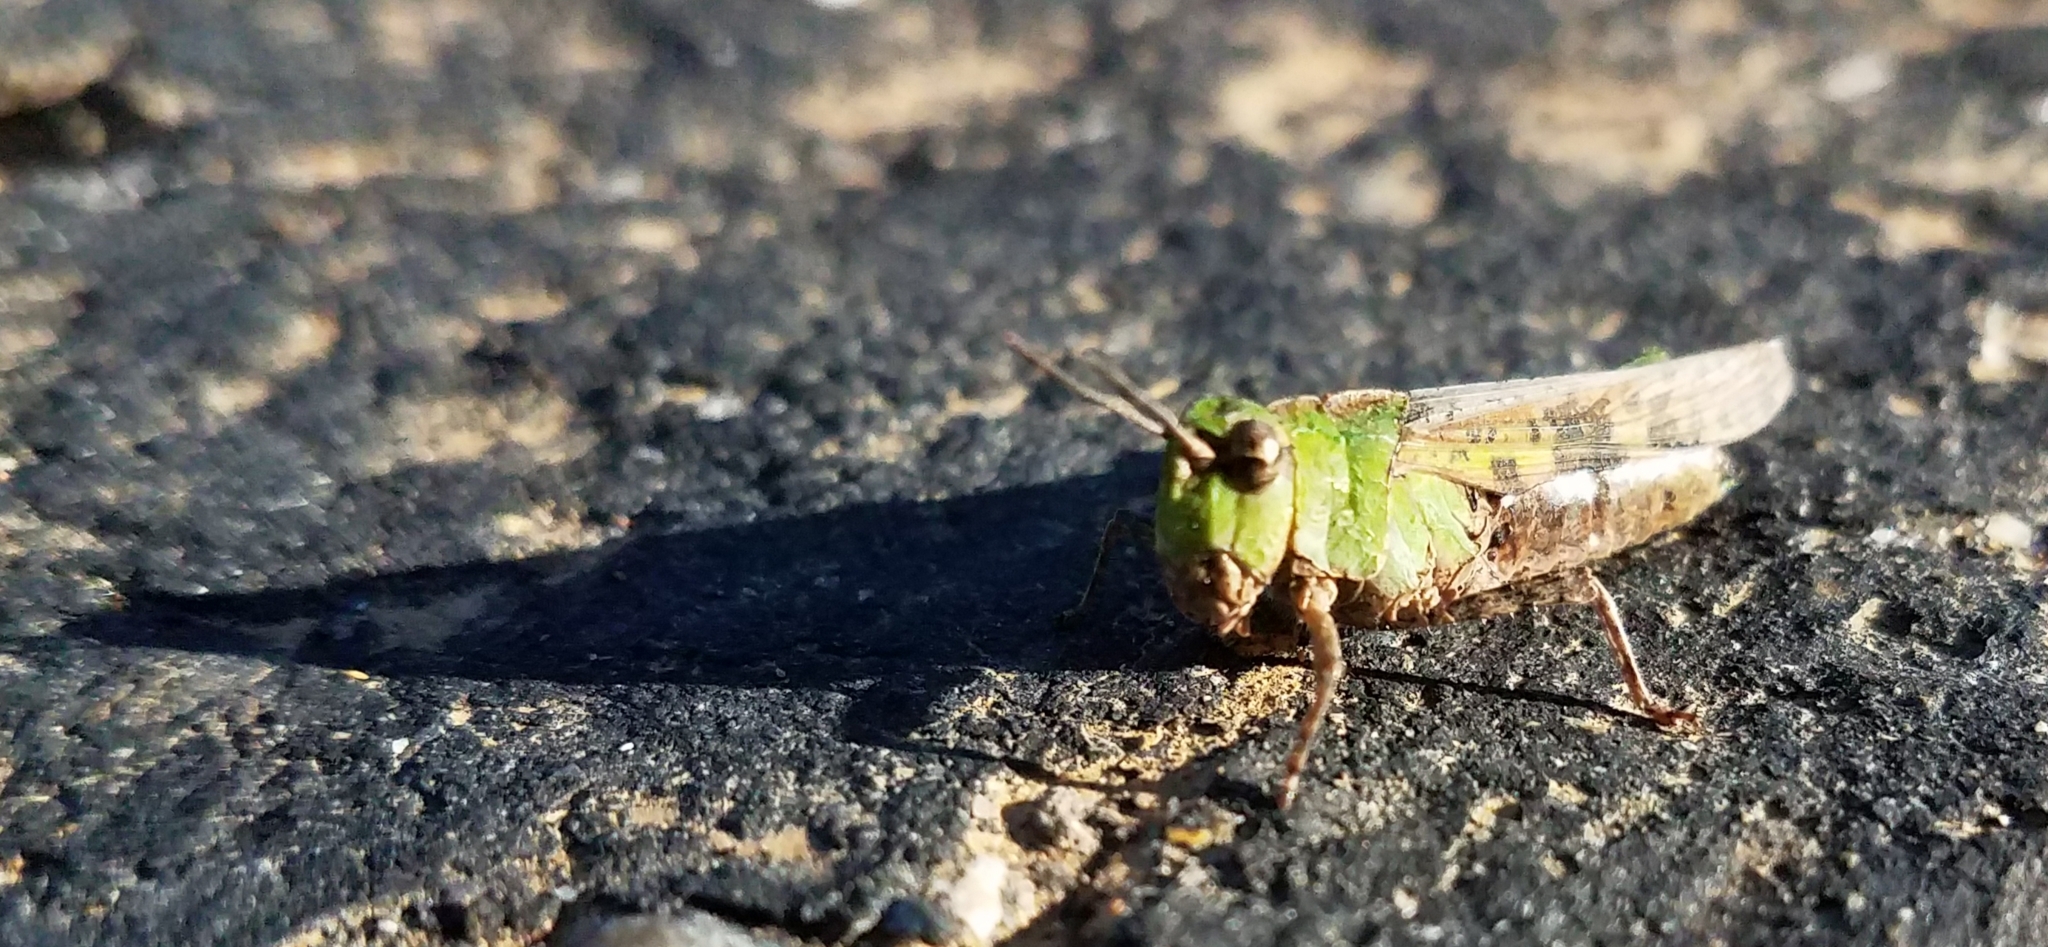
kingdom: Animalia
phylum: Arthropoda
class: Insecta
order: Orthoptera
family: Acrididae
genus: Chimarocephala
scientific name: Chimarocephala pacifica
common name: Painted meadow grasshopper
